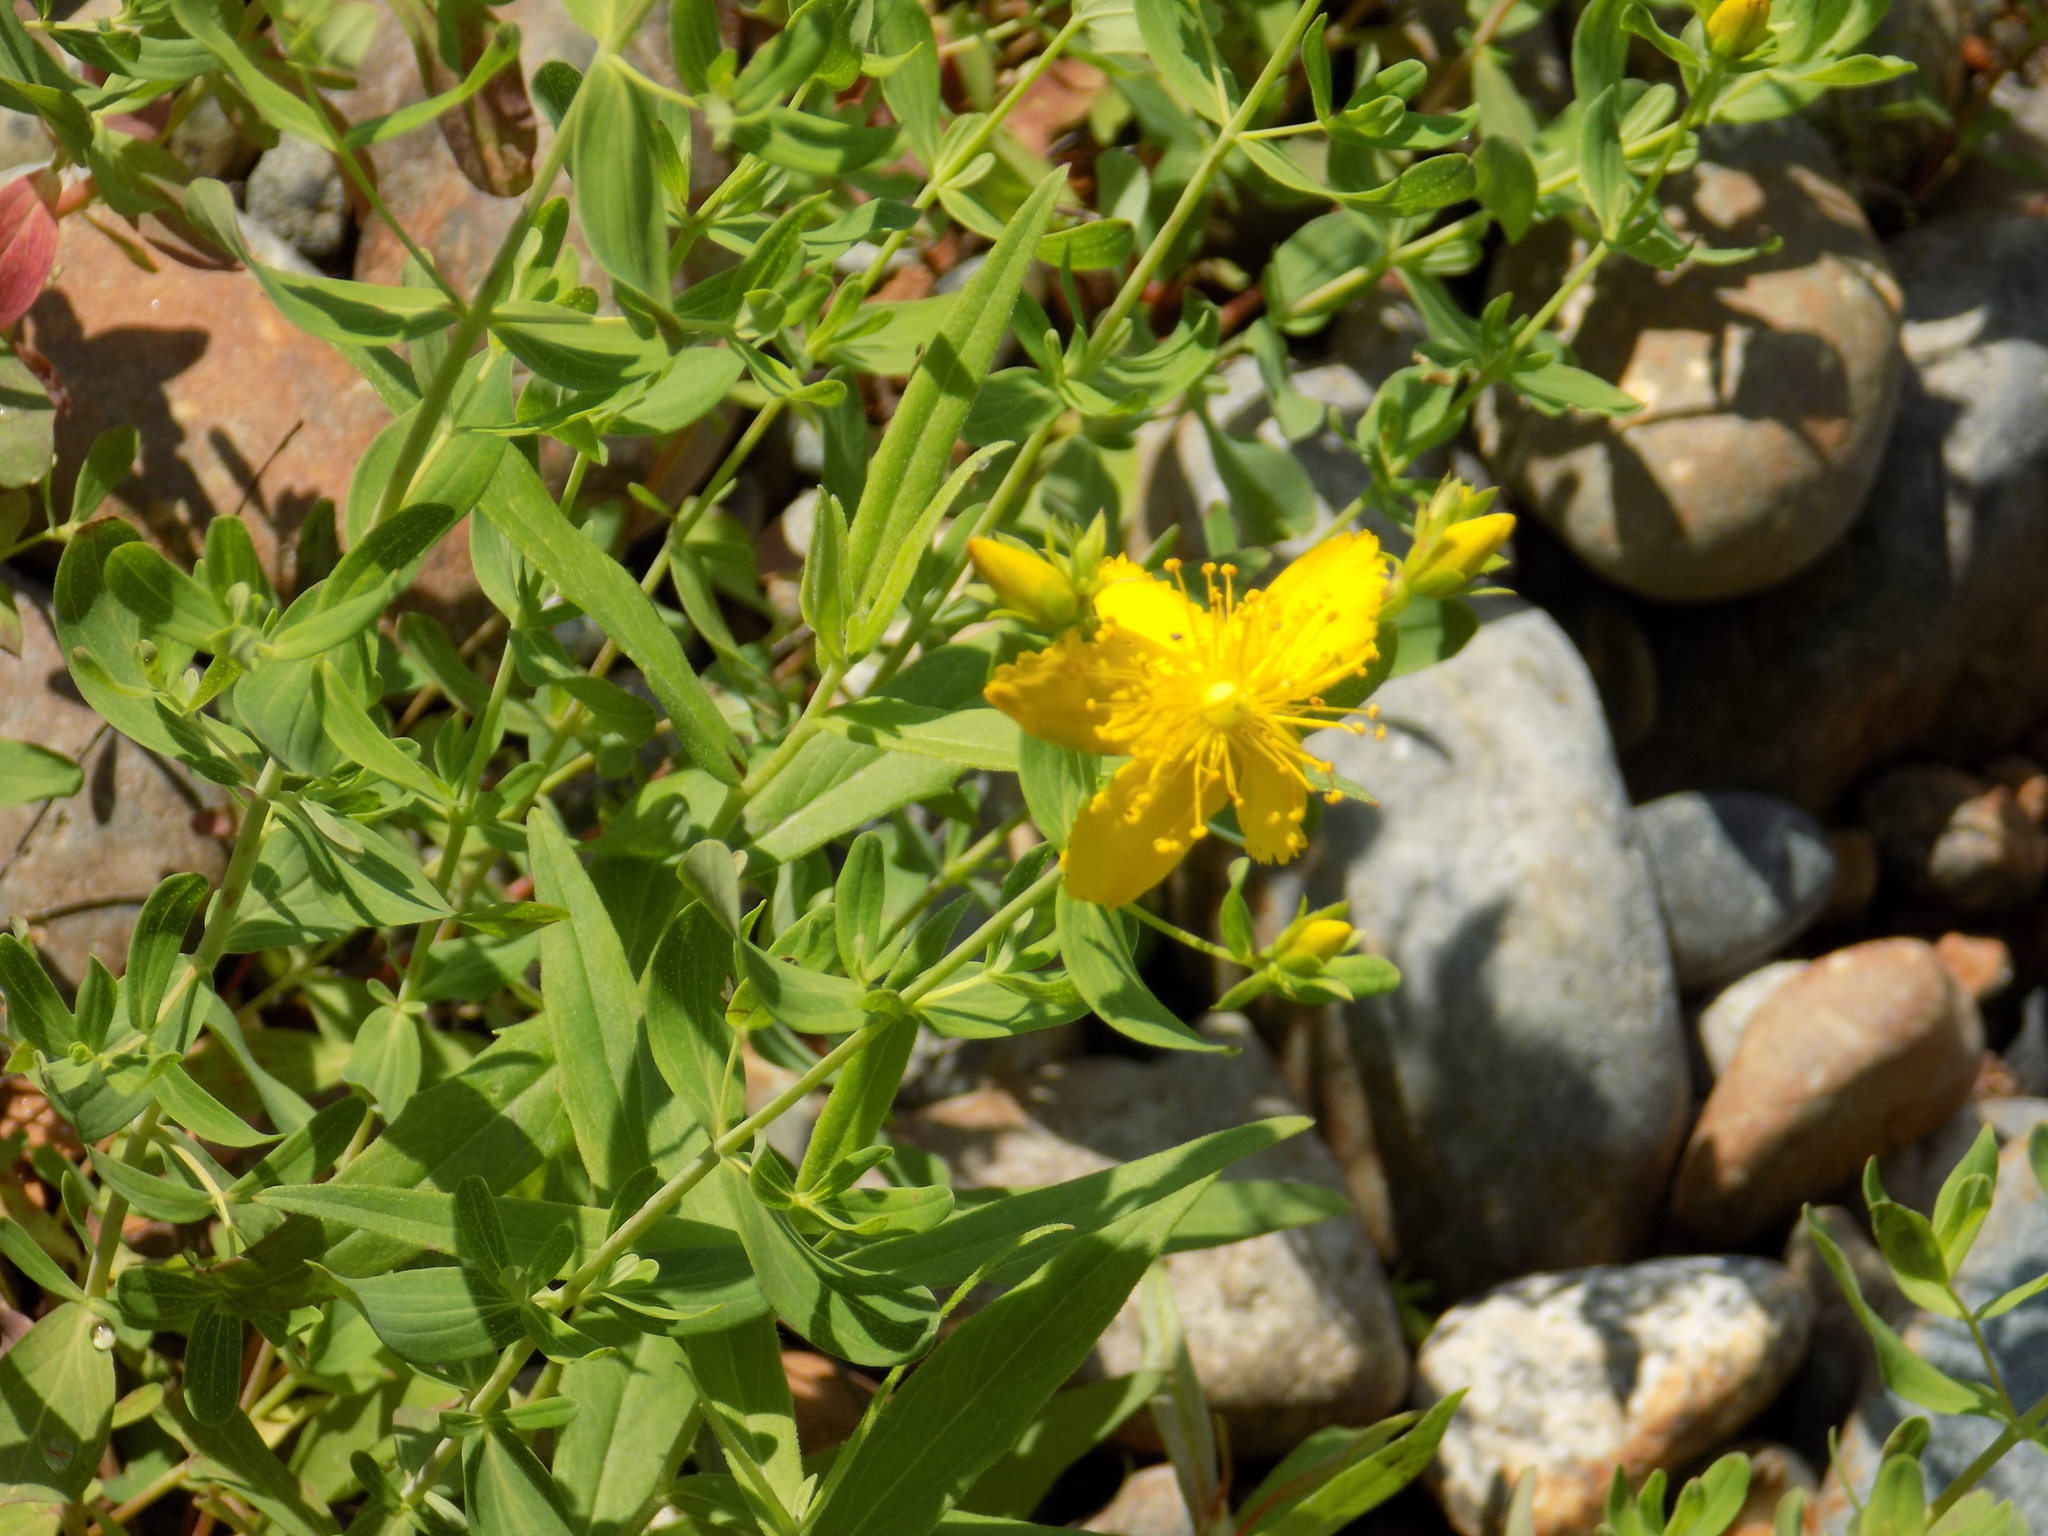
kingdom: Plantae
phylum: Tracheophyta
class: Magnoliopsida
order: Malpighiales
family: Hypericaceae
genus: Hypericum
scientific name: Hypericum perforatum
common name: Common st. johnswort
